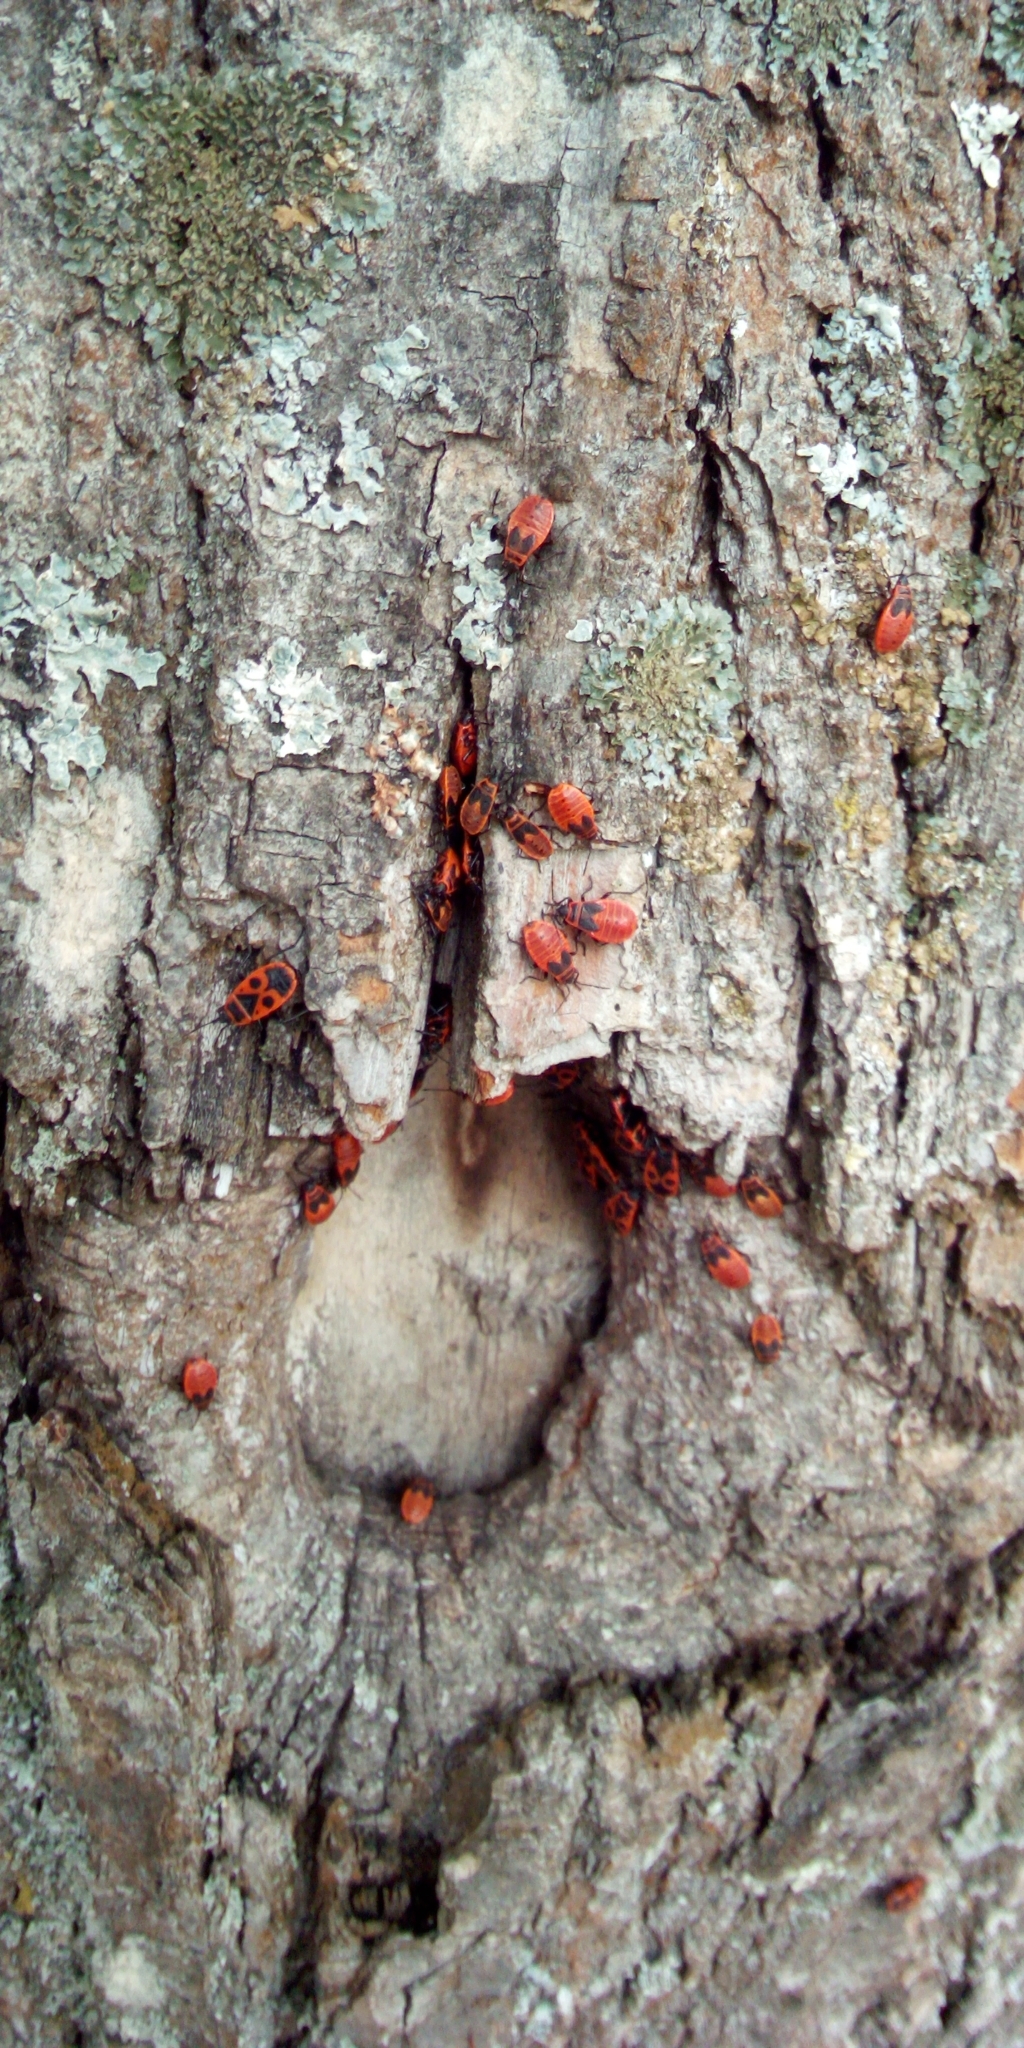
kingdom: Animalia
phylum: Arthropoda
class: Insecta
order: Hemiptera
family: Pyrrhocoridae
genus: Pyrrhocoris
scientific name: Pyrrhocoris apterus
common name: Firebug
